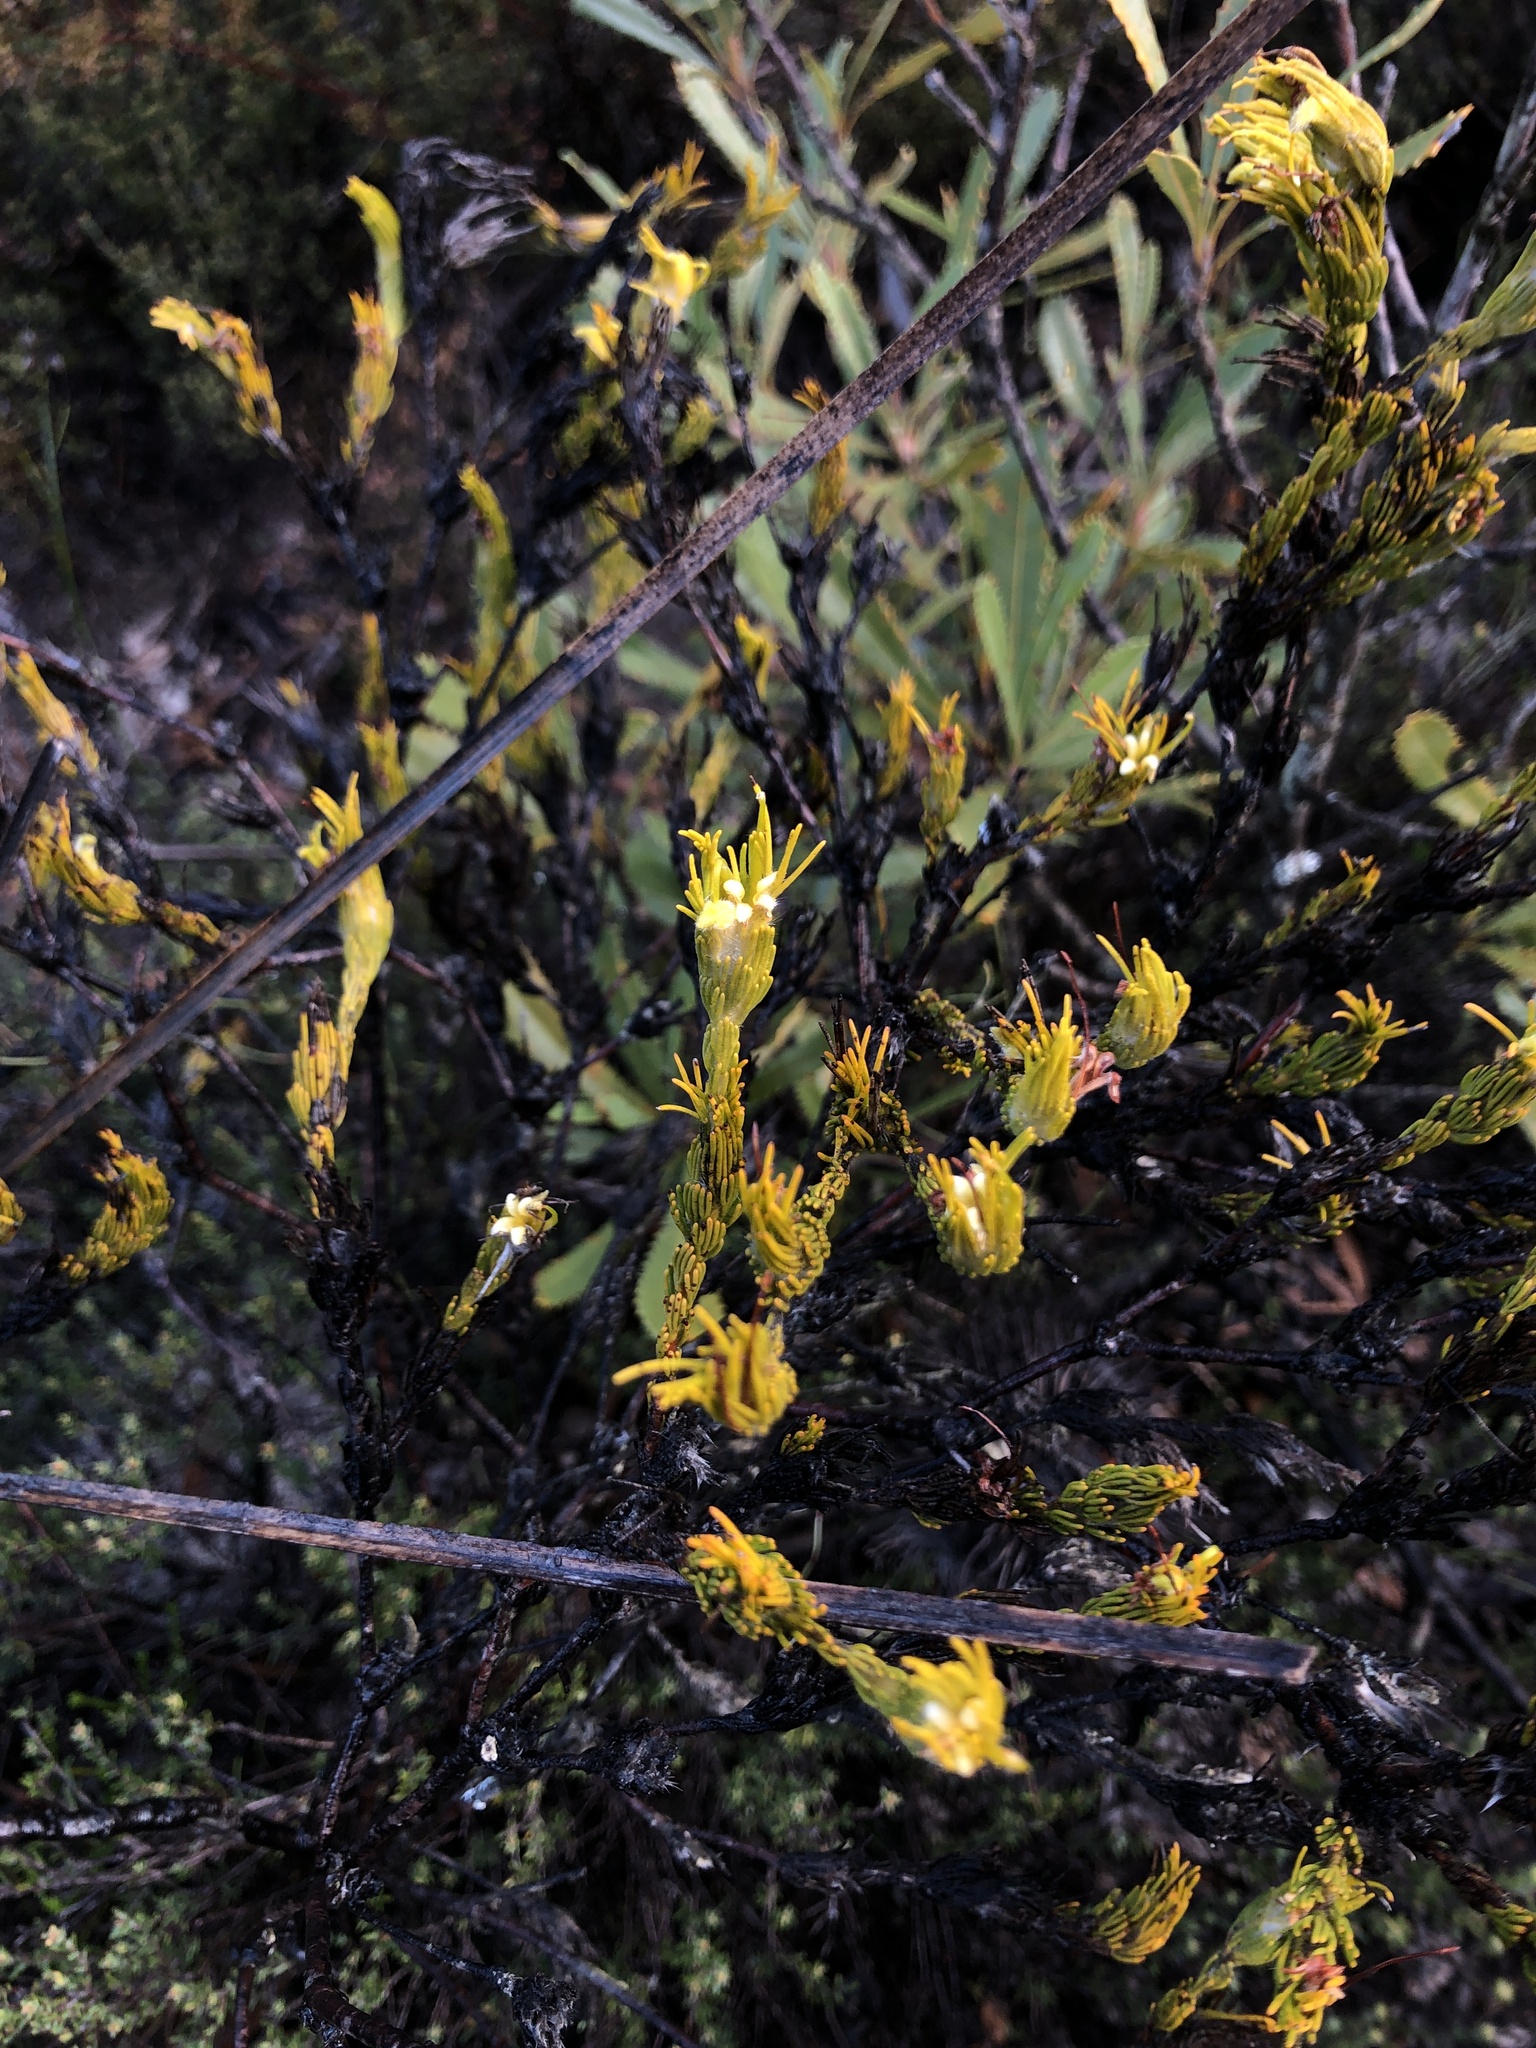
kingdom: Plantae
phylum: Tracheophyta
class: Magnoliopsida
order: Proteales
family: Proteaceae
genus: Adenanthos
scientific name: Adenanthos terminalis
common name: Yellow gland-flower
